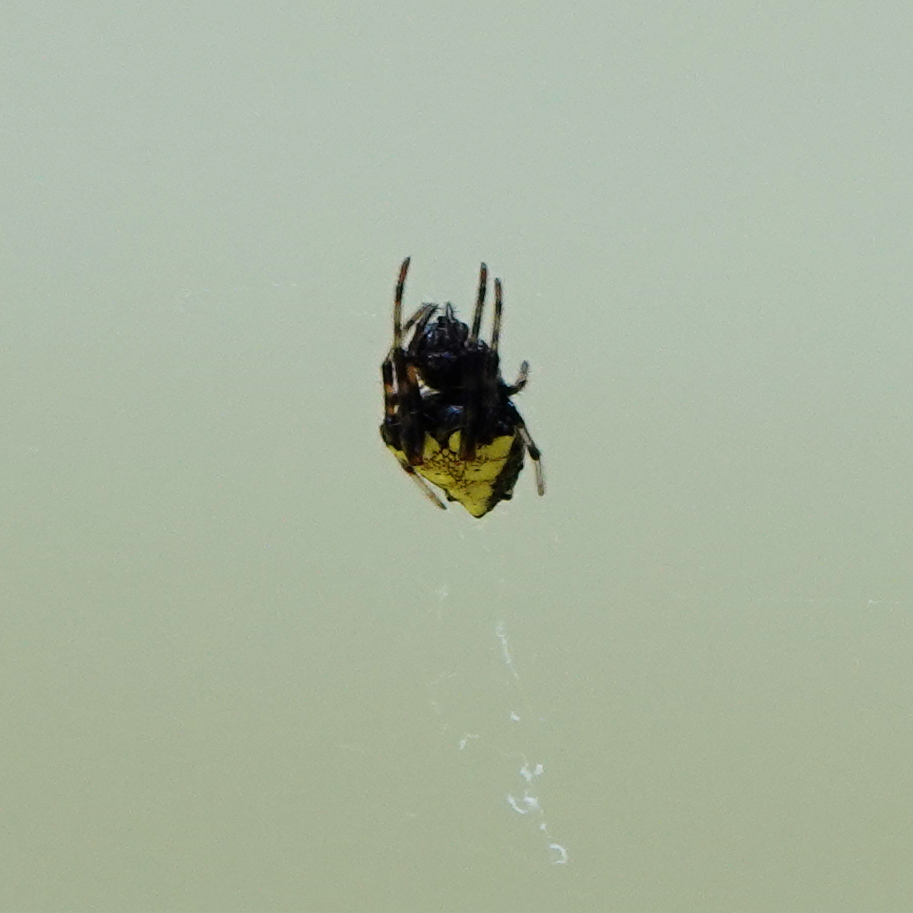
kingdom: Animalia
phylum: Arthropoda
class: Arachnida
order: Araneae
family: Araneidae
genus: Verrucosa
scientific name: Verrucosa arenata
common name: Orb weavers
